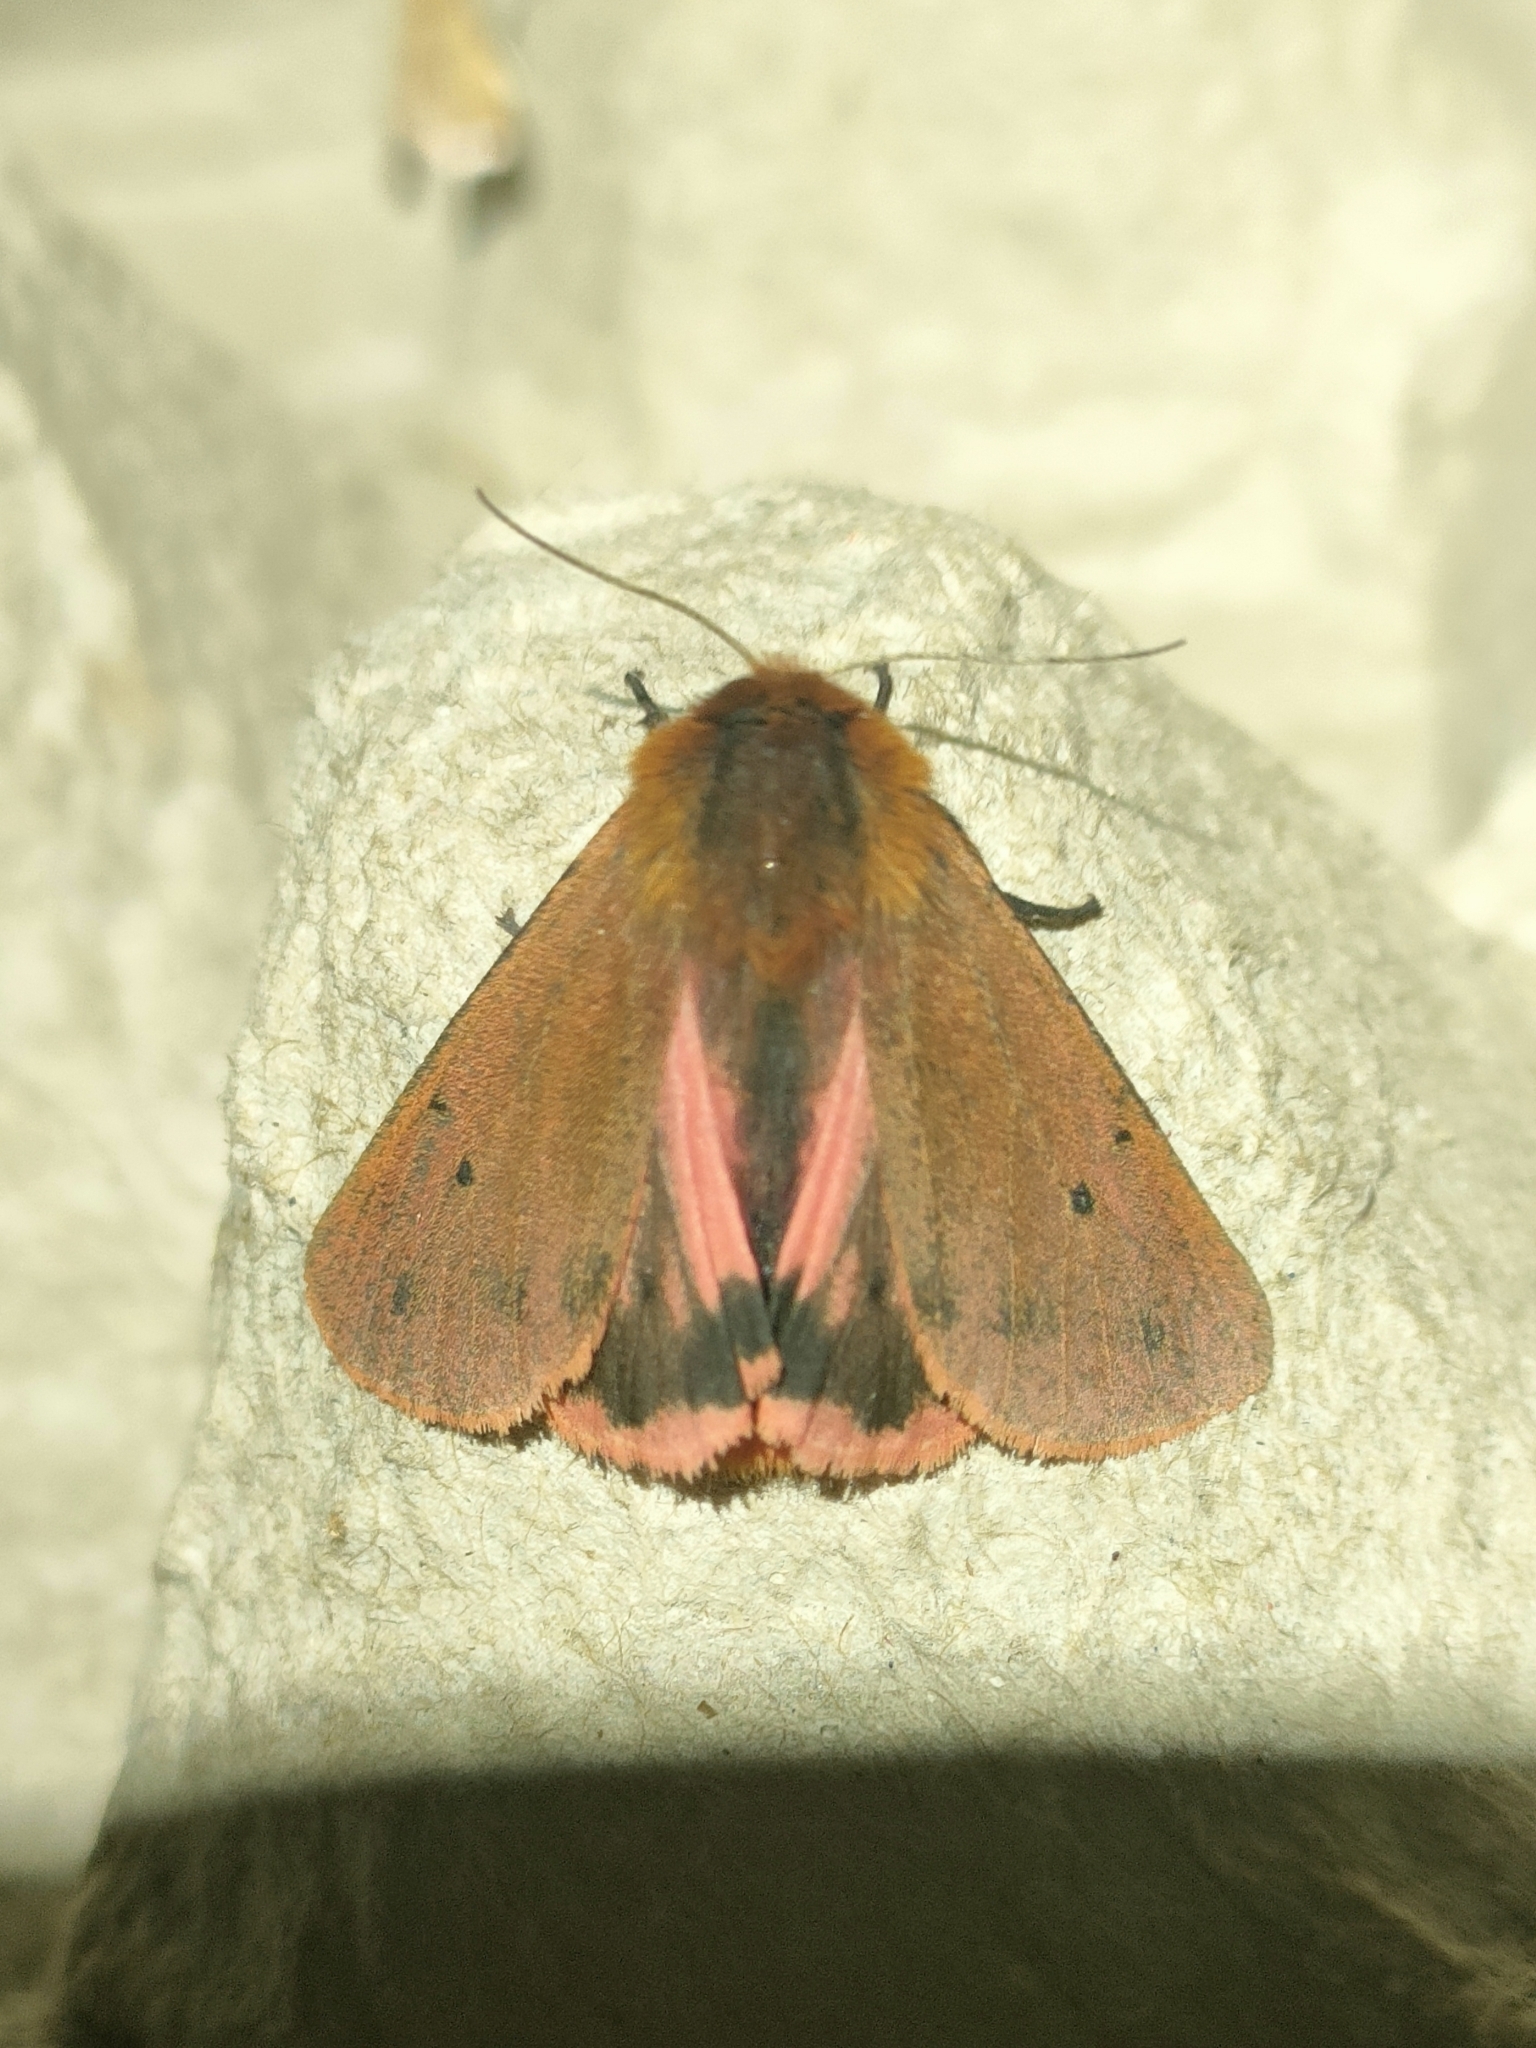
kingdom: Animalia
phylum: Arthropoda
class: Insecta
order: Lepidoptera
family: Erebidae
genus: Phragmatobia
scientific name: Phragmatobia fuliginosa
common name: Ruby tiger
